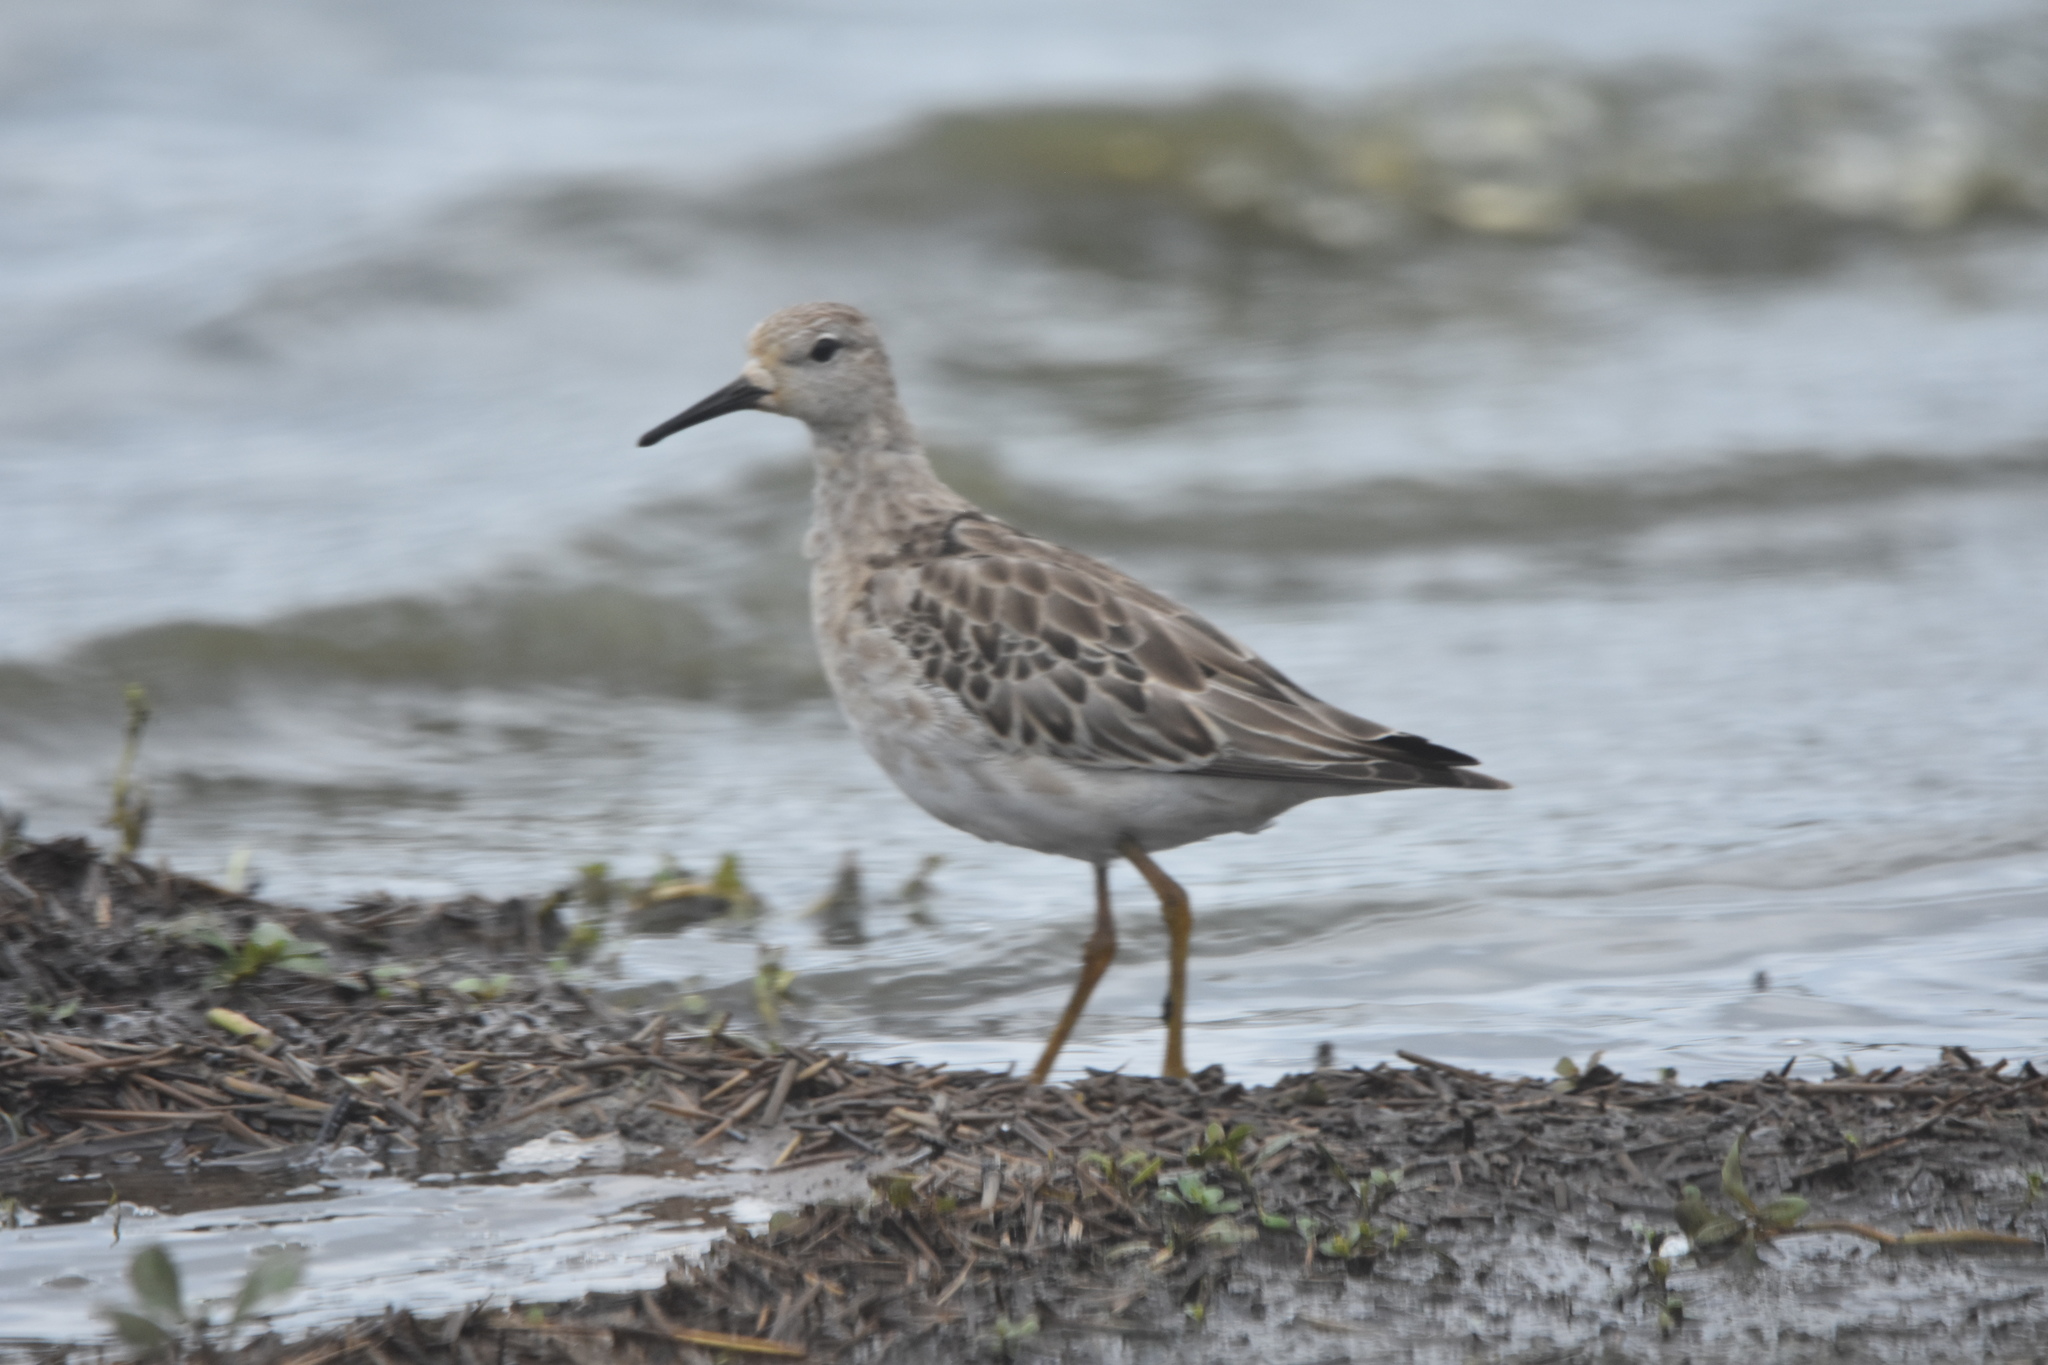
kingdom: Animalia
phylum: Chordata
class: Aves
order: Charadriiformes
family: Scolopacidae
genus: Calidris
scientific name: Calidris pugnax
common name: Ruff
